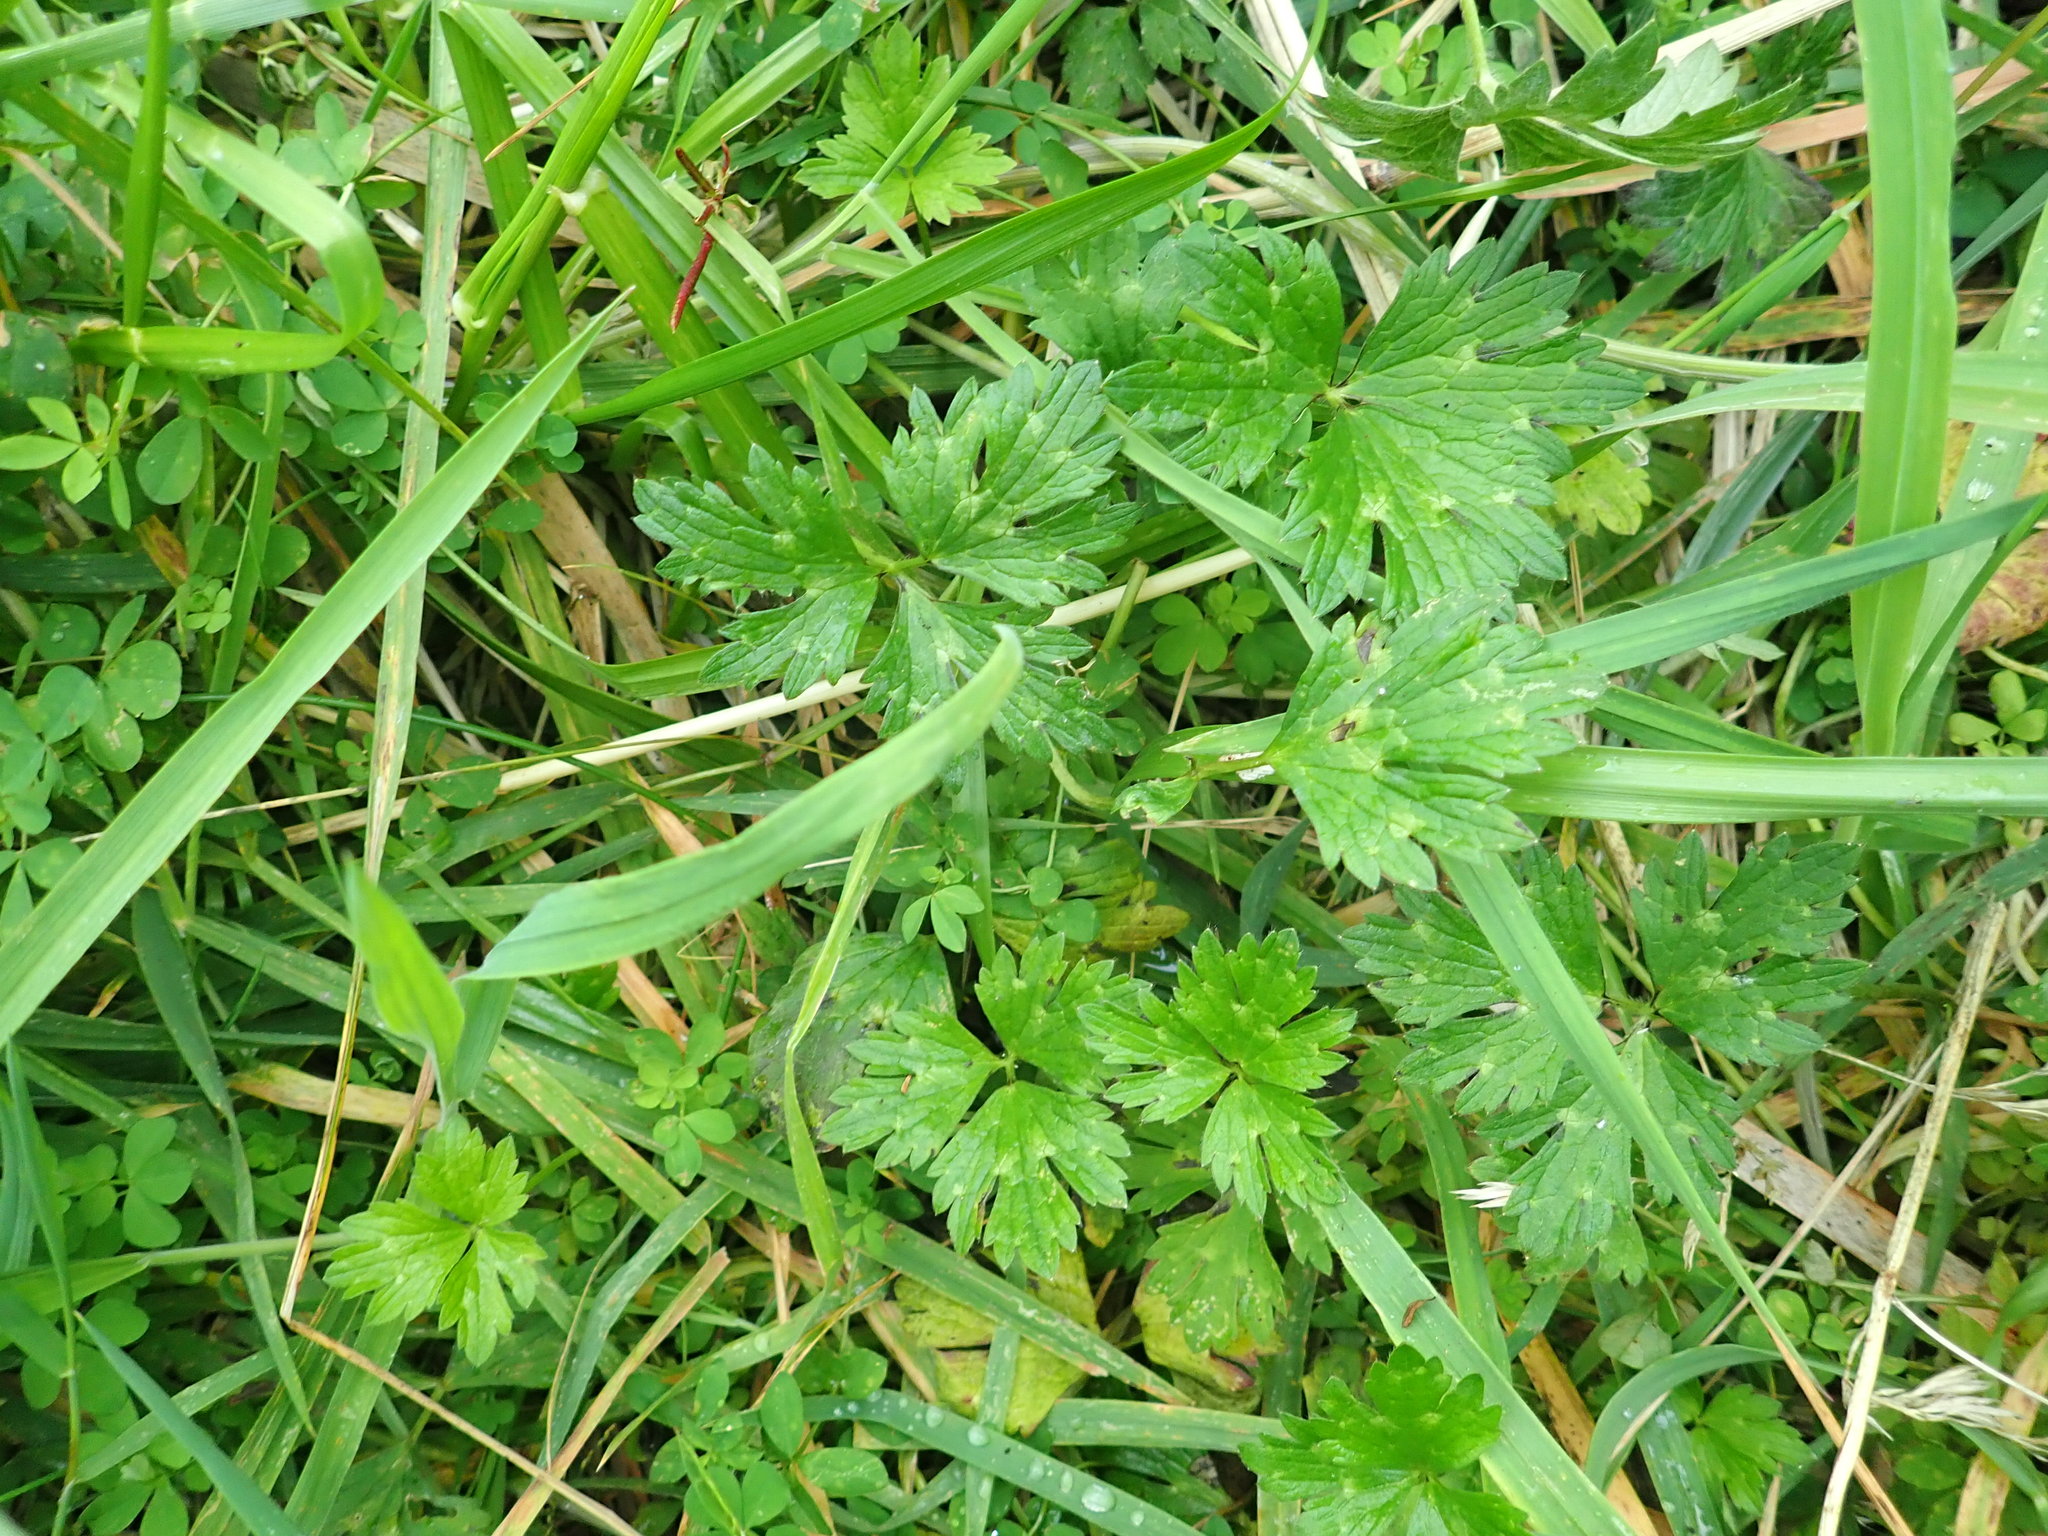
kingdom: Plantae
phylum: Tracheophyta
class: Magnoliopsida
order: Ranunculales
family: Ranunculaceae
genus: Ranunculus
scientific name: Ranunculus repens
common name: Creeping buttercup
